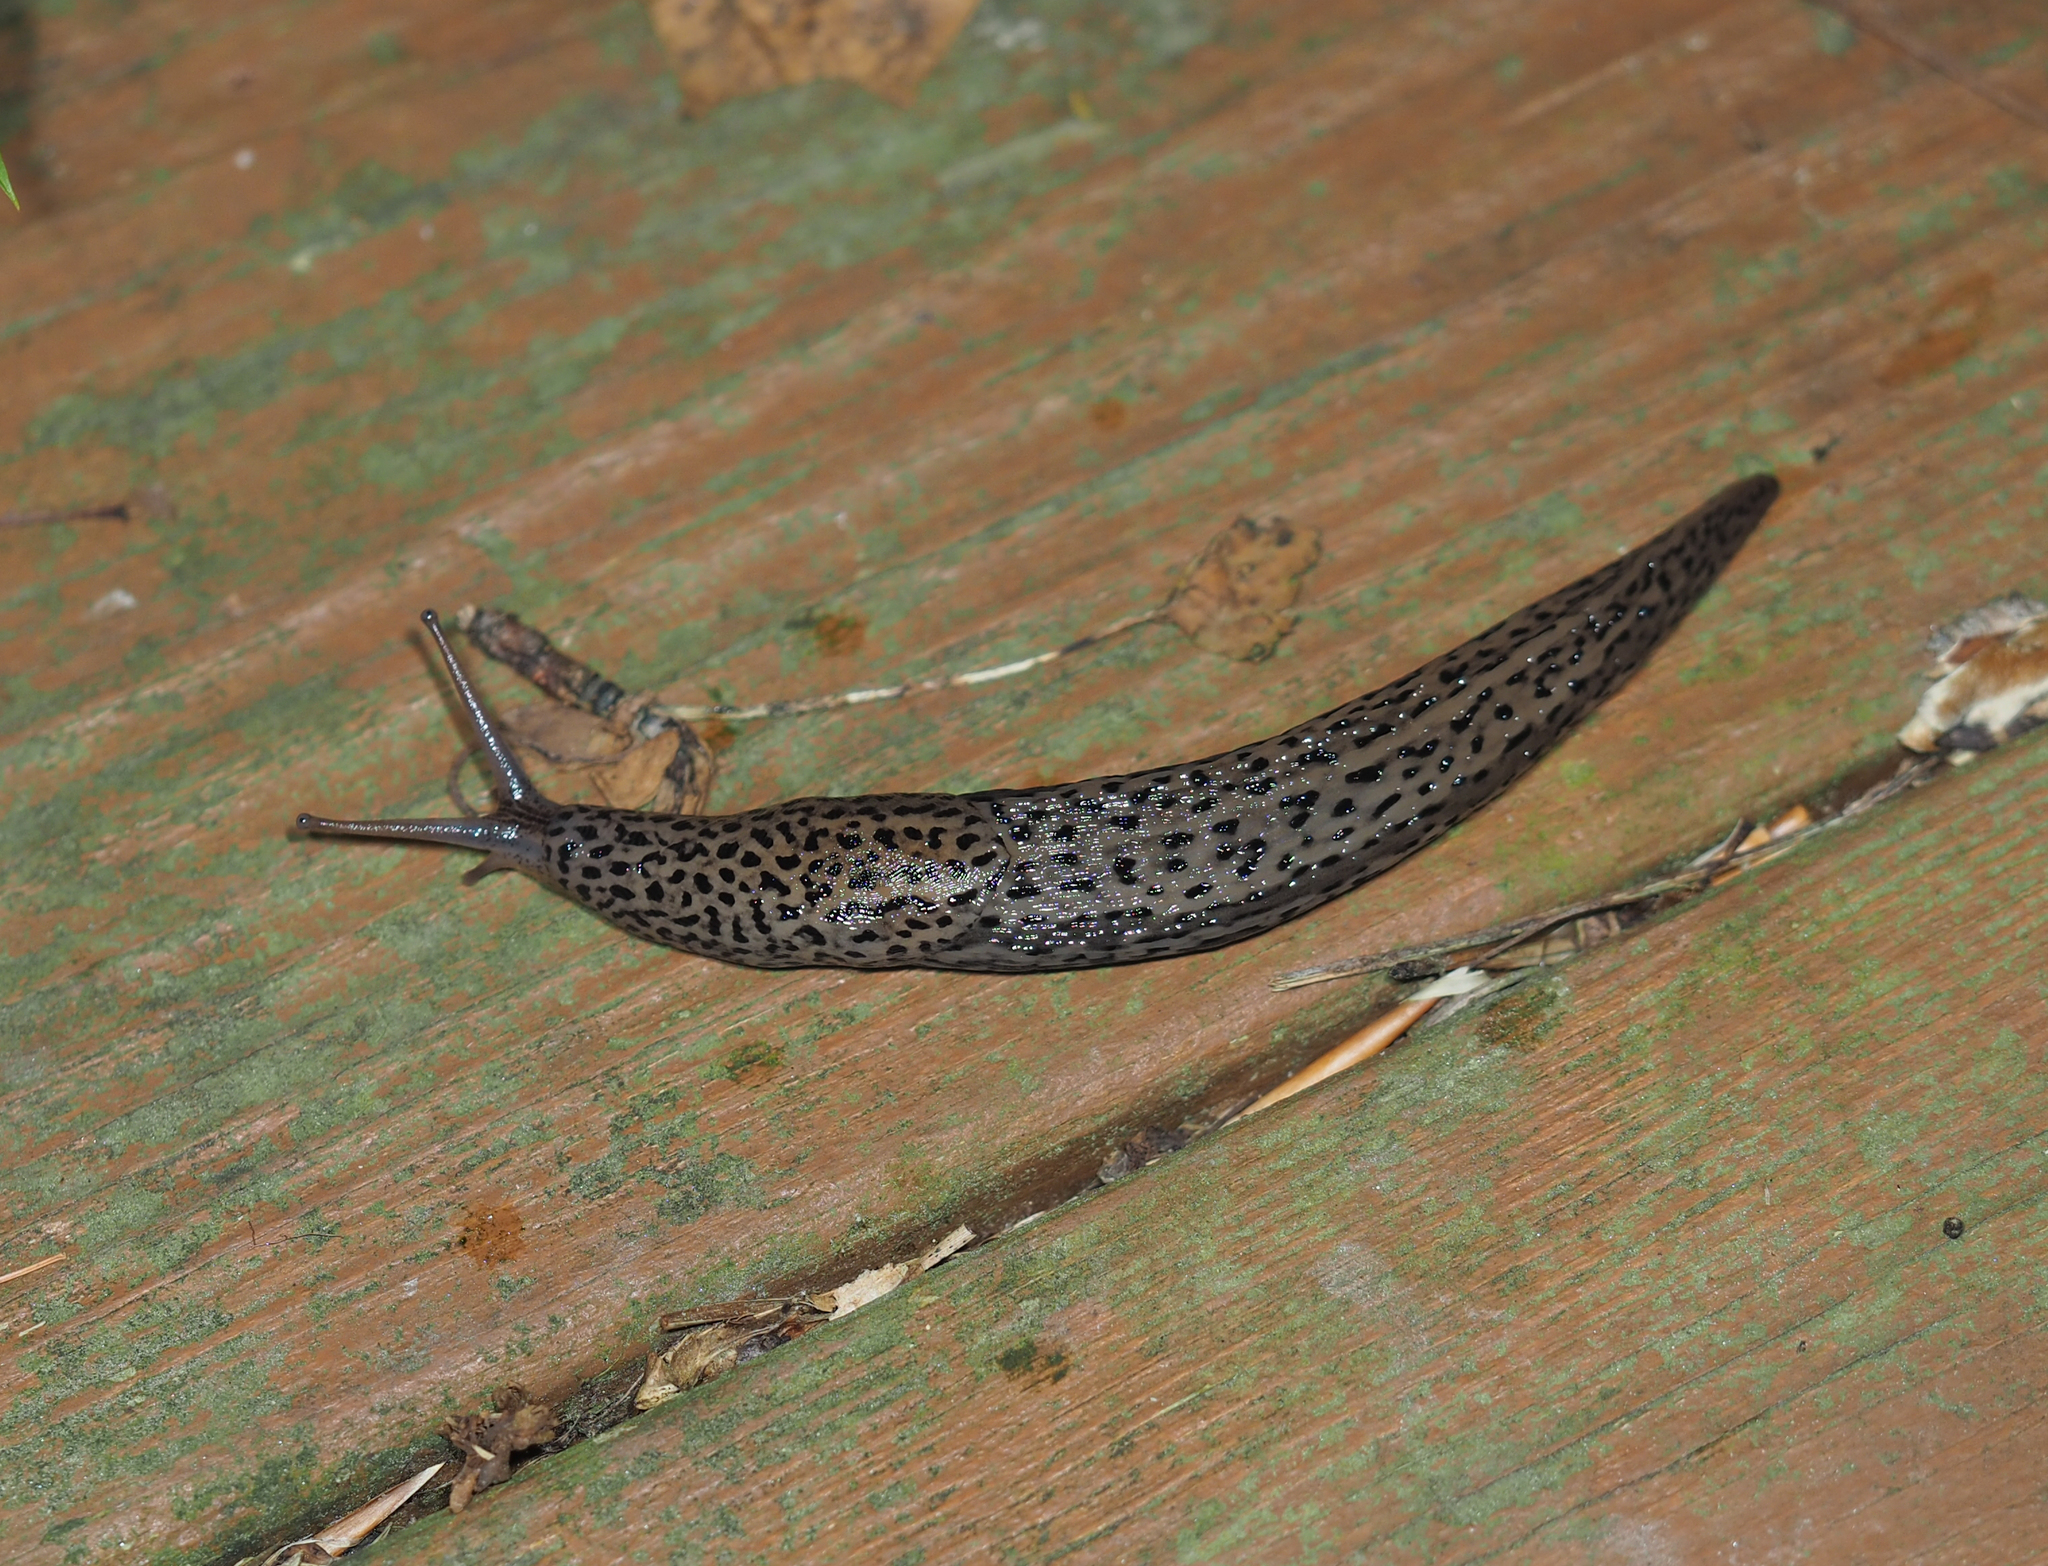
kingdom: Animalia
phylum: Mollusca
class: Gastropoda
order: Stylommatophora
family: Limacidae
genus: Limax
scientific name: Limax maximus
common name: Great grey slug
